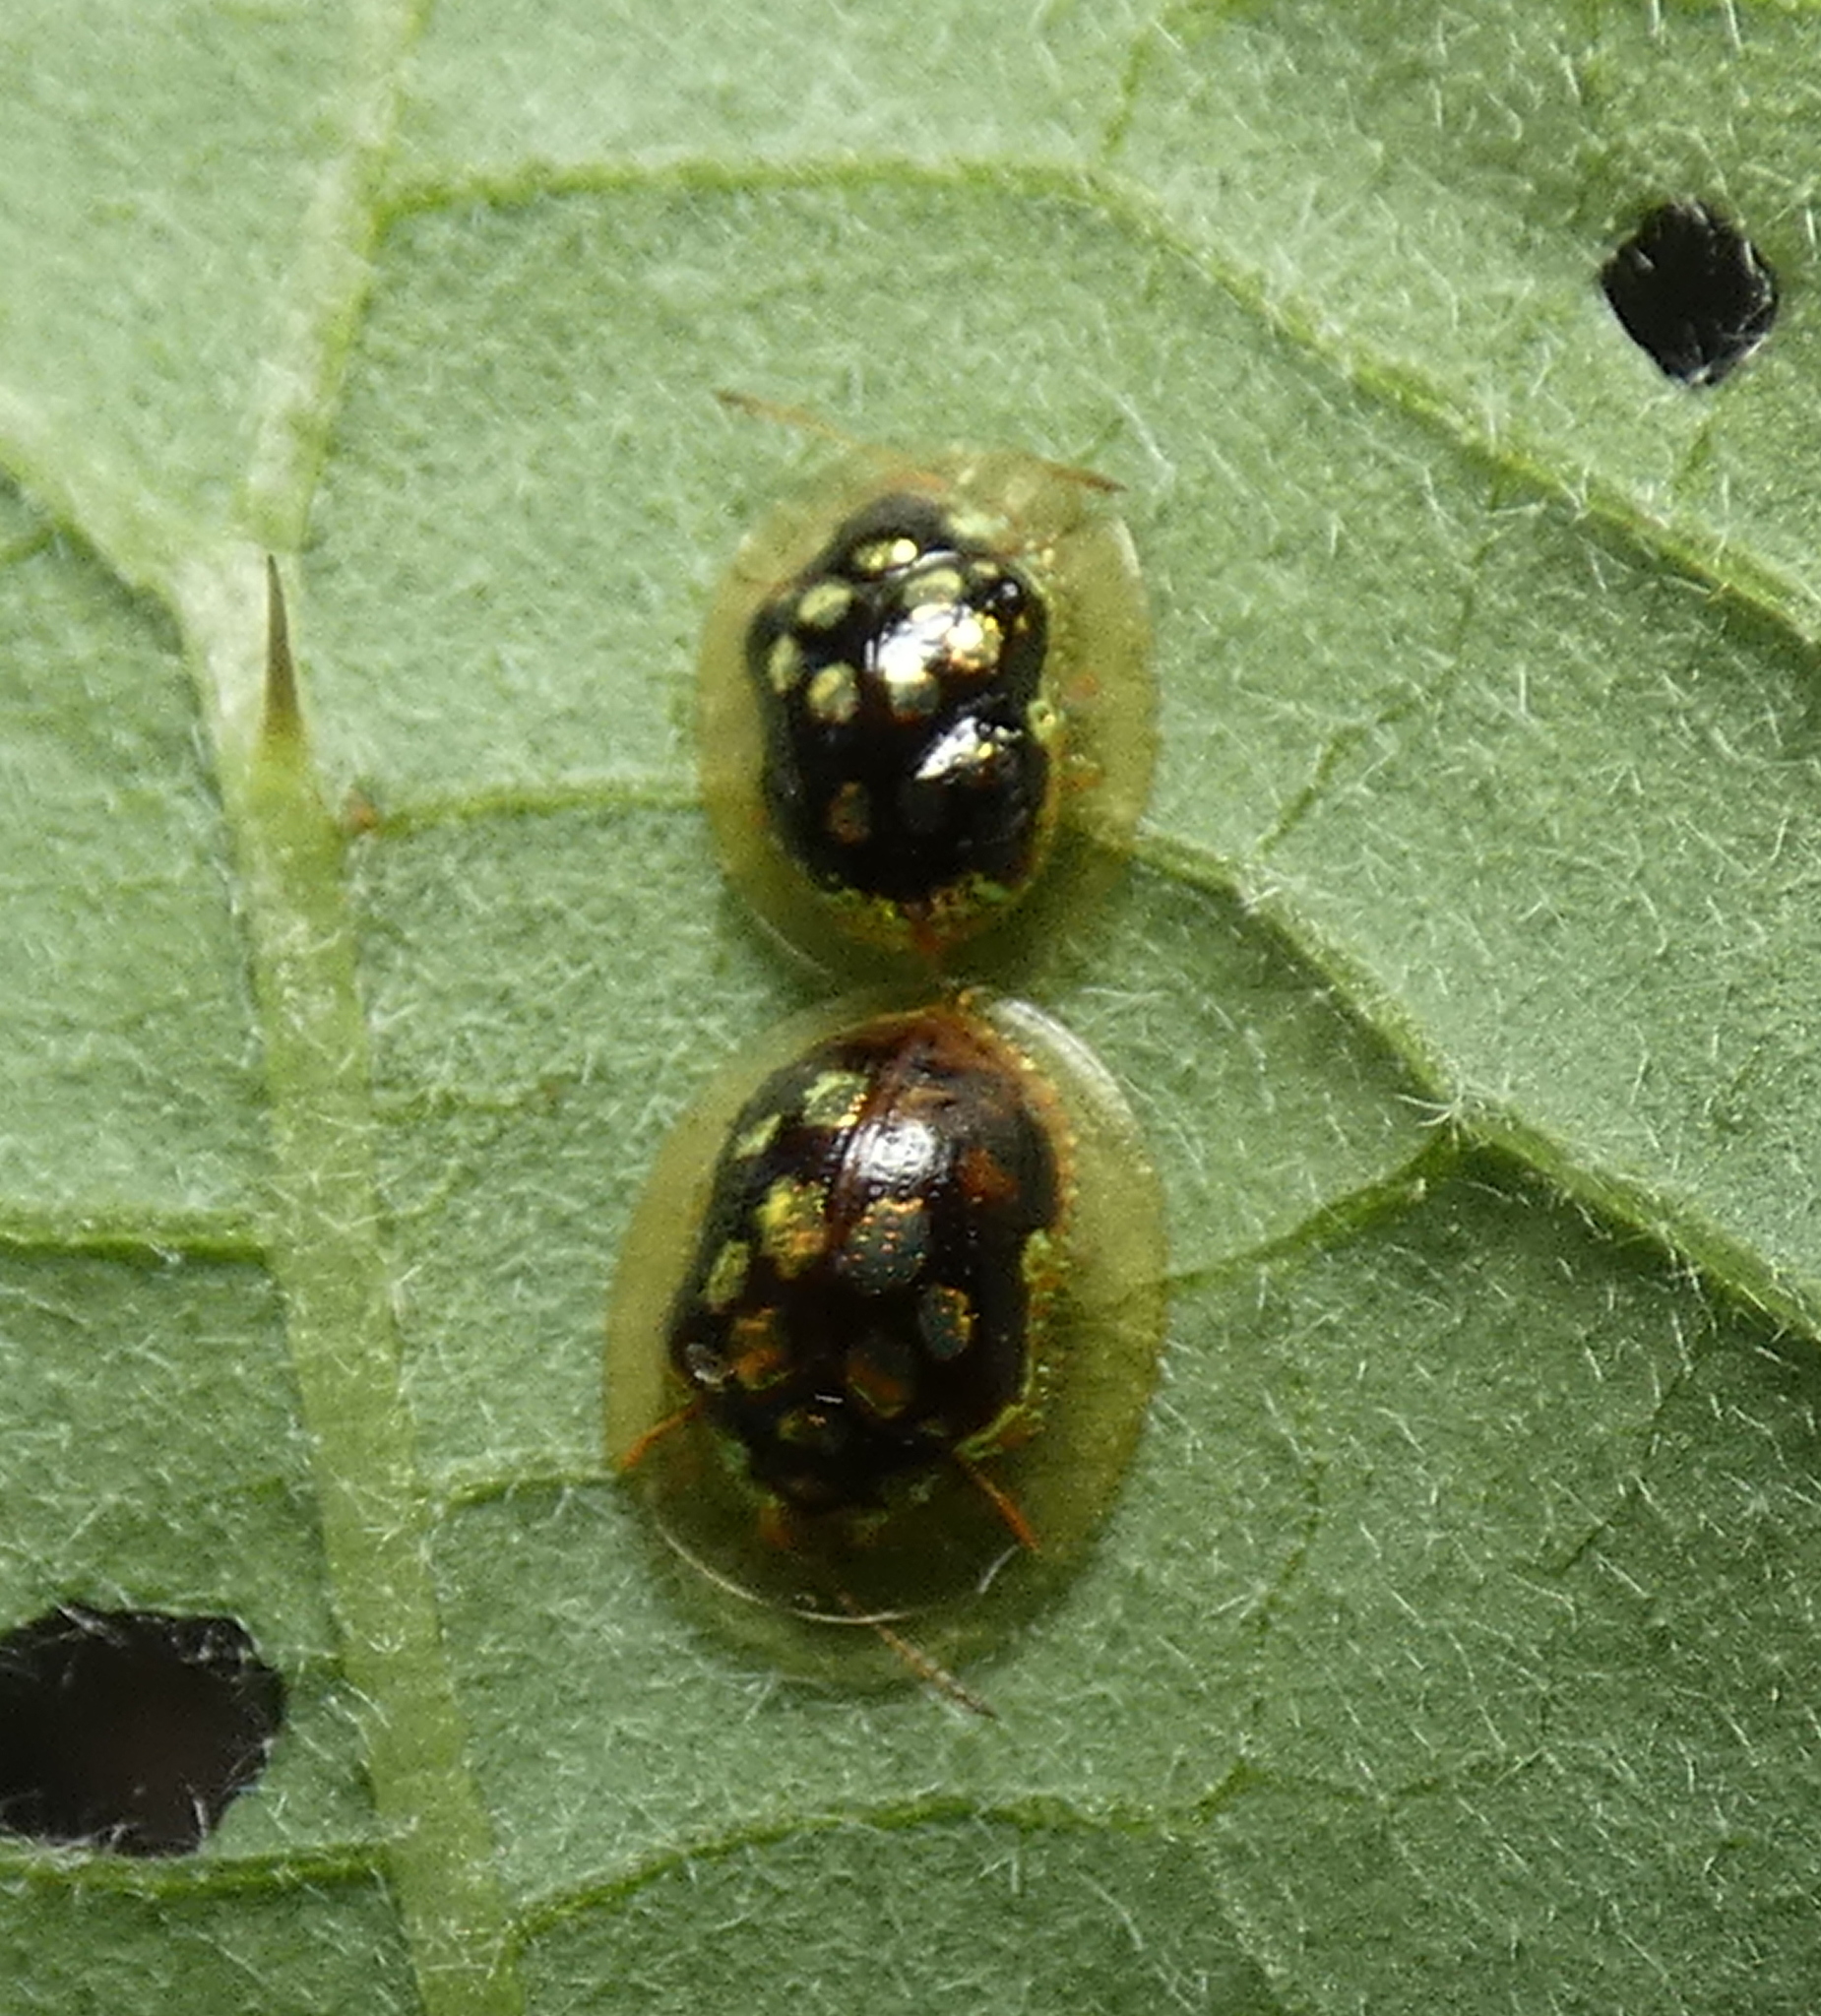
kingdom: Animalia
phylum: Arthropoda
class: Insecta
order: Coleoptera
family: Chrysomelidae
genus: Plagiometriona
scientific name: Plagiometriona microcera
